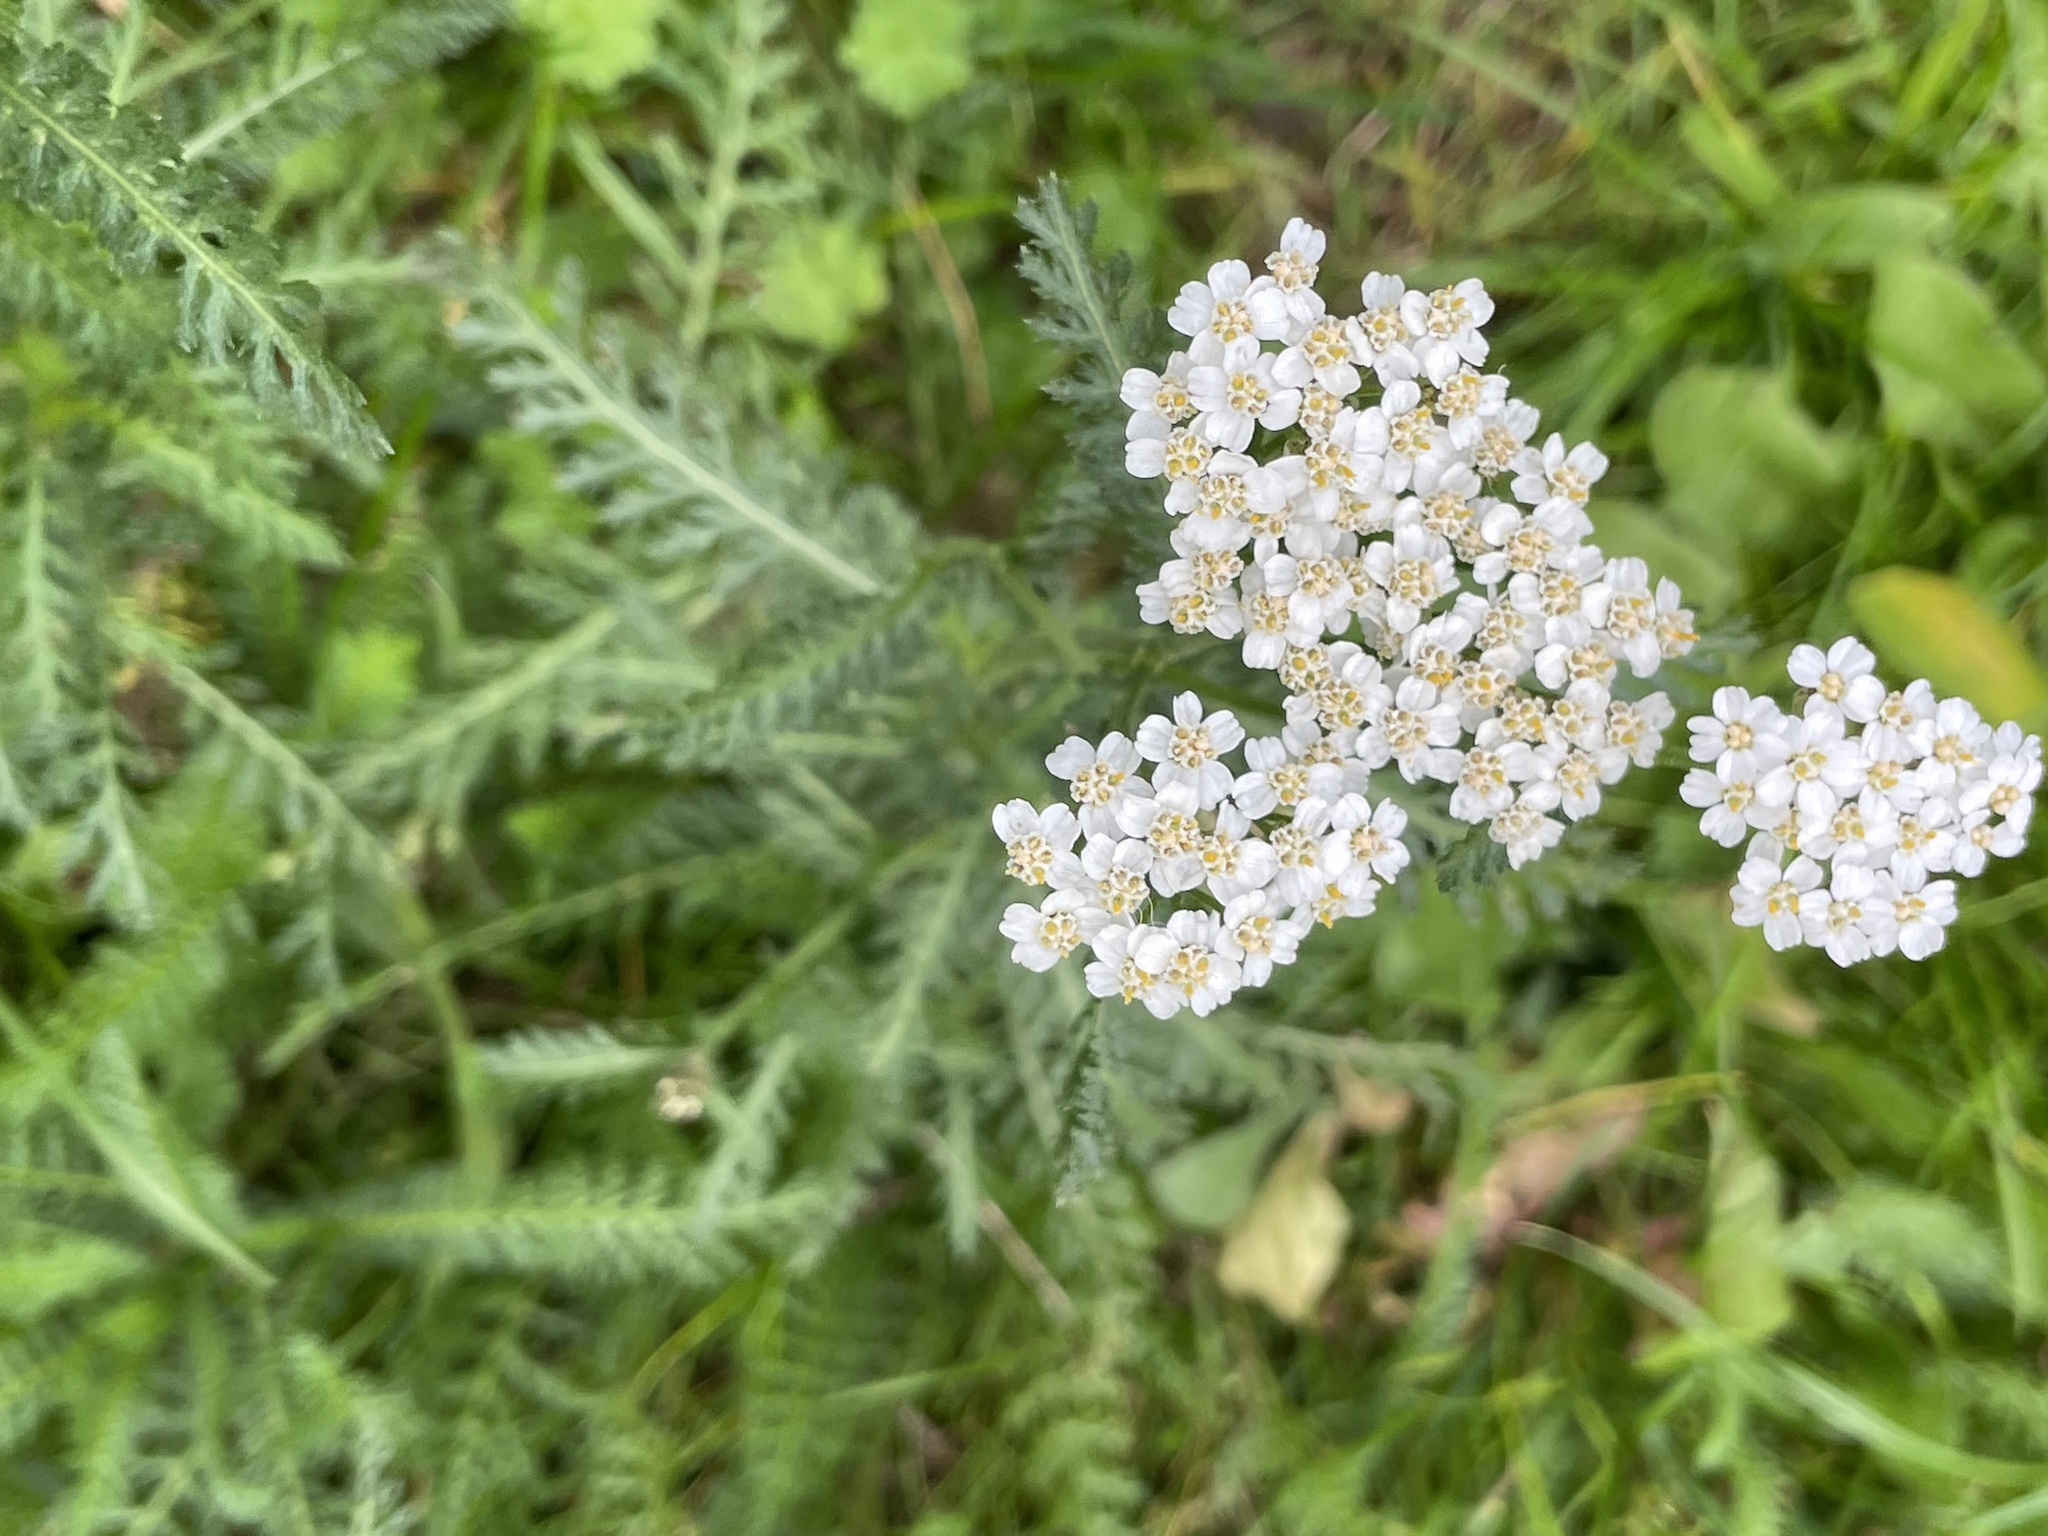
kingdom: Plantae
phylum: Tracheophyta
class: Magnoliopsida
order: Asterales
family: Asteraceae
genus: Achillea
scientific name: Achillea
